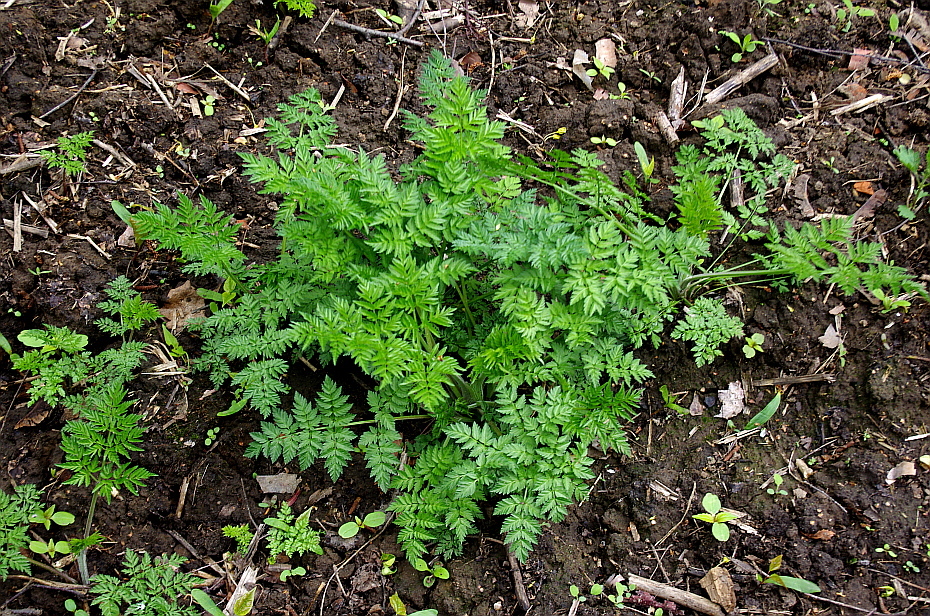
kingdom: Plantae
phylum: Tracheophyta
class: Magnoliopsida
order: Apiales
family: Apiaceae
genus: Anthriscus
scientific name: Anthriscus sylvestris
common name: Cow parsley
